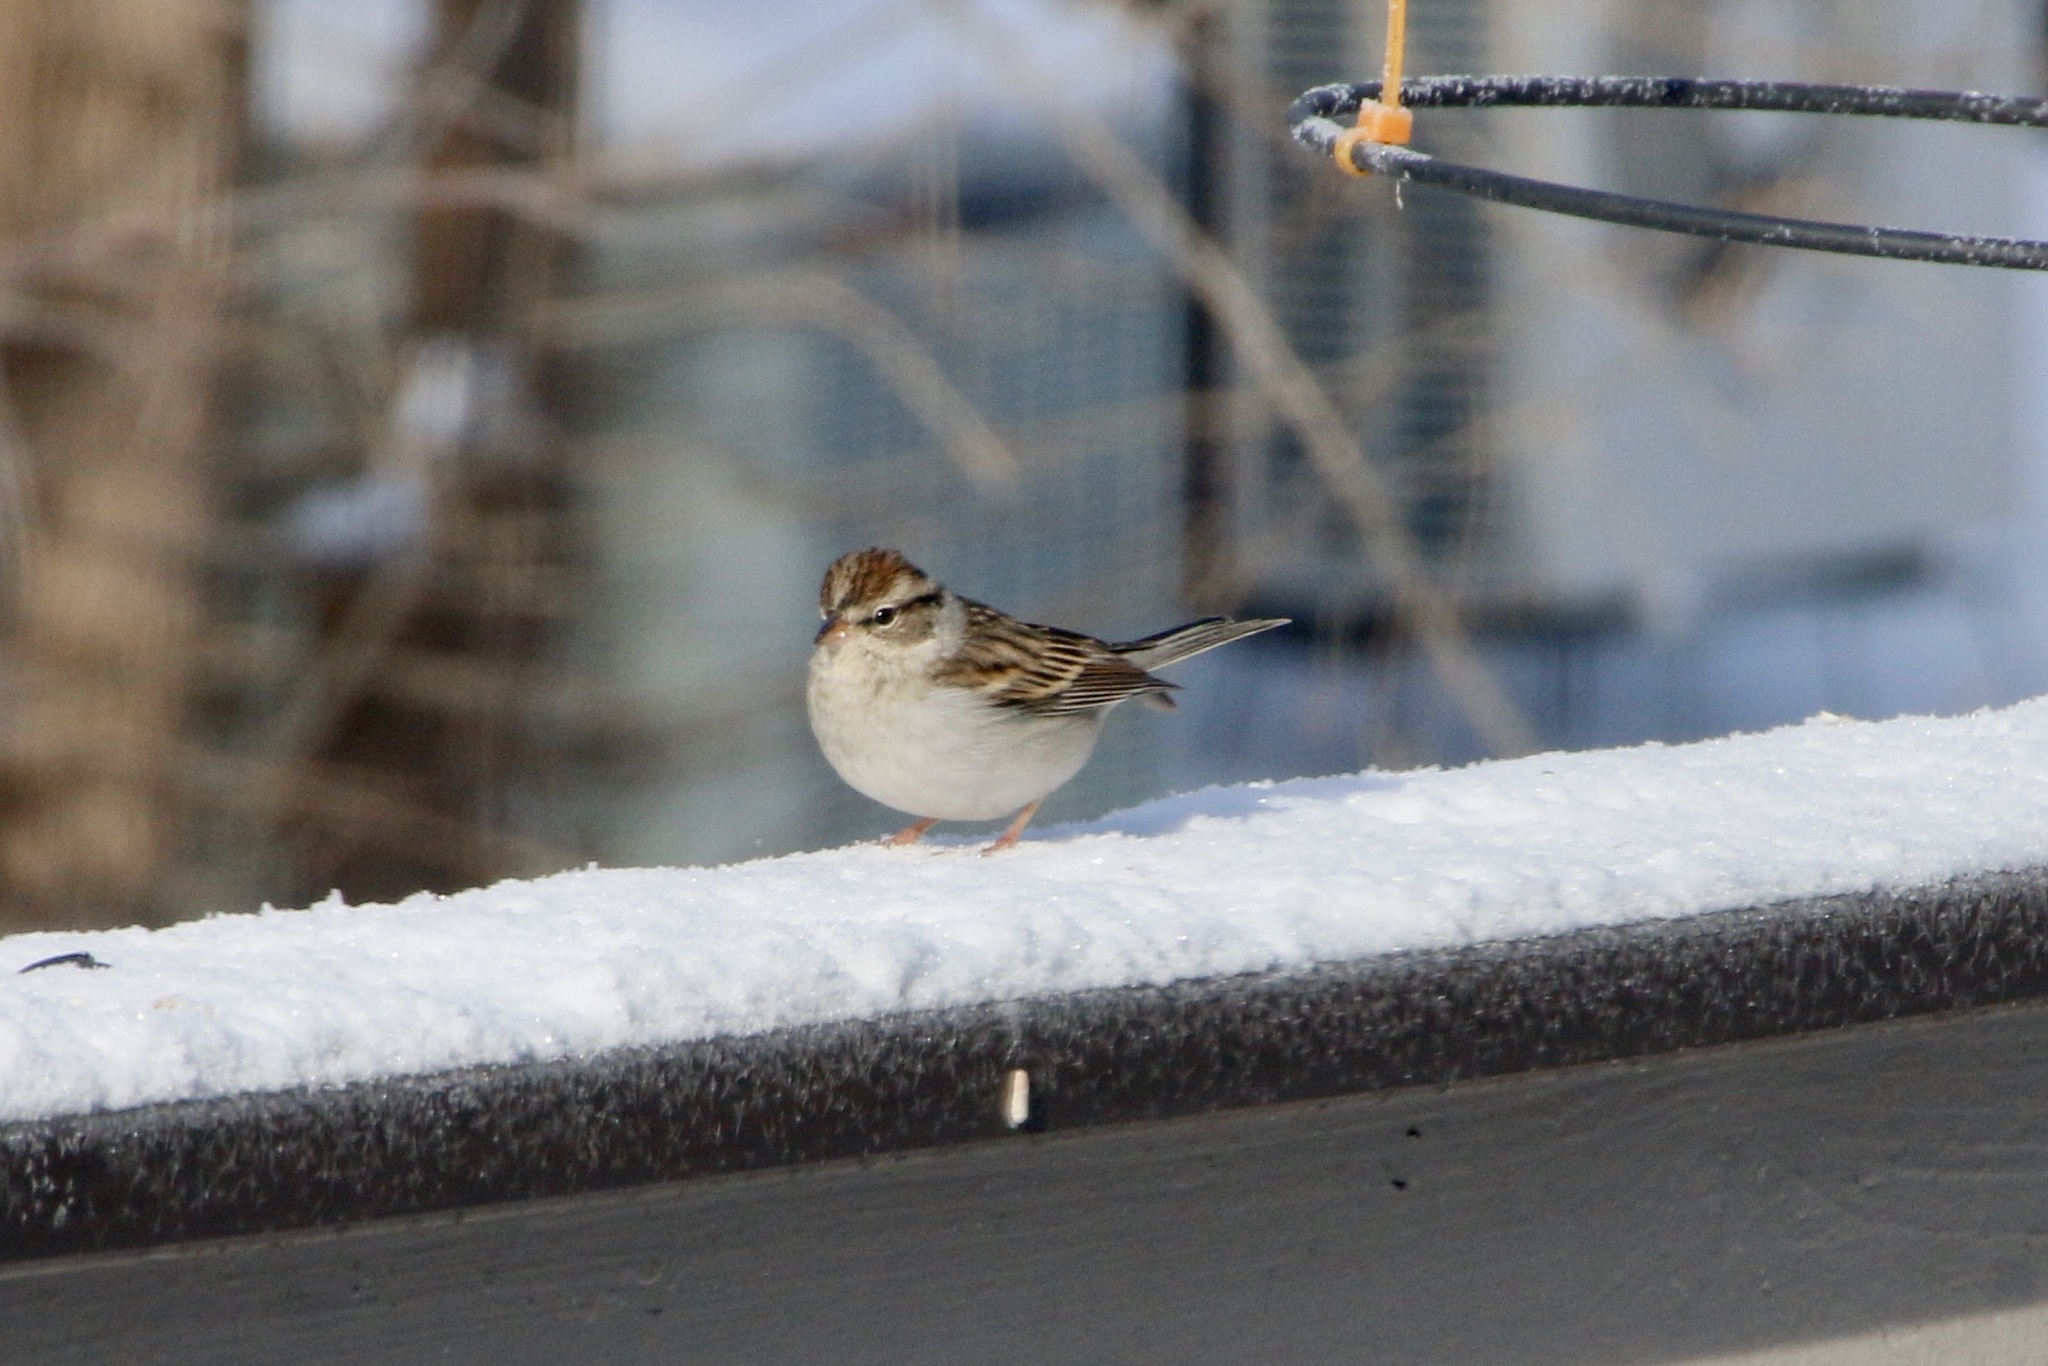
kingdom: Animalia
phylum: Chordata
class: Aves
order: Passeriformes
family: Passerellidae
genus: Spizella
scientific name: Spizella passerina
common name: Chipping sparrow
